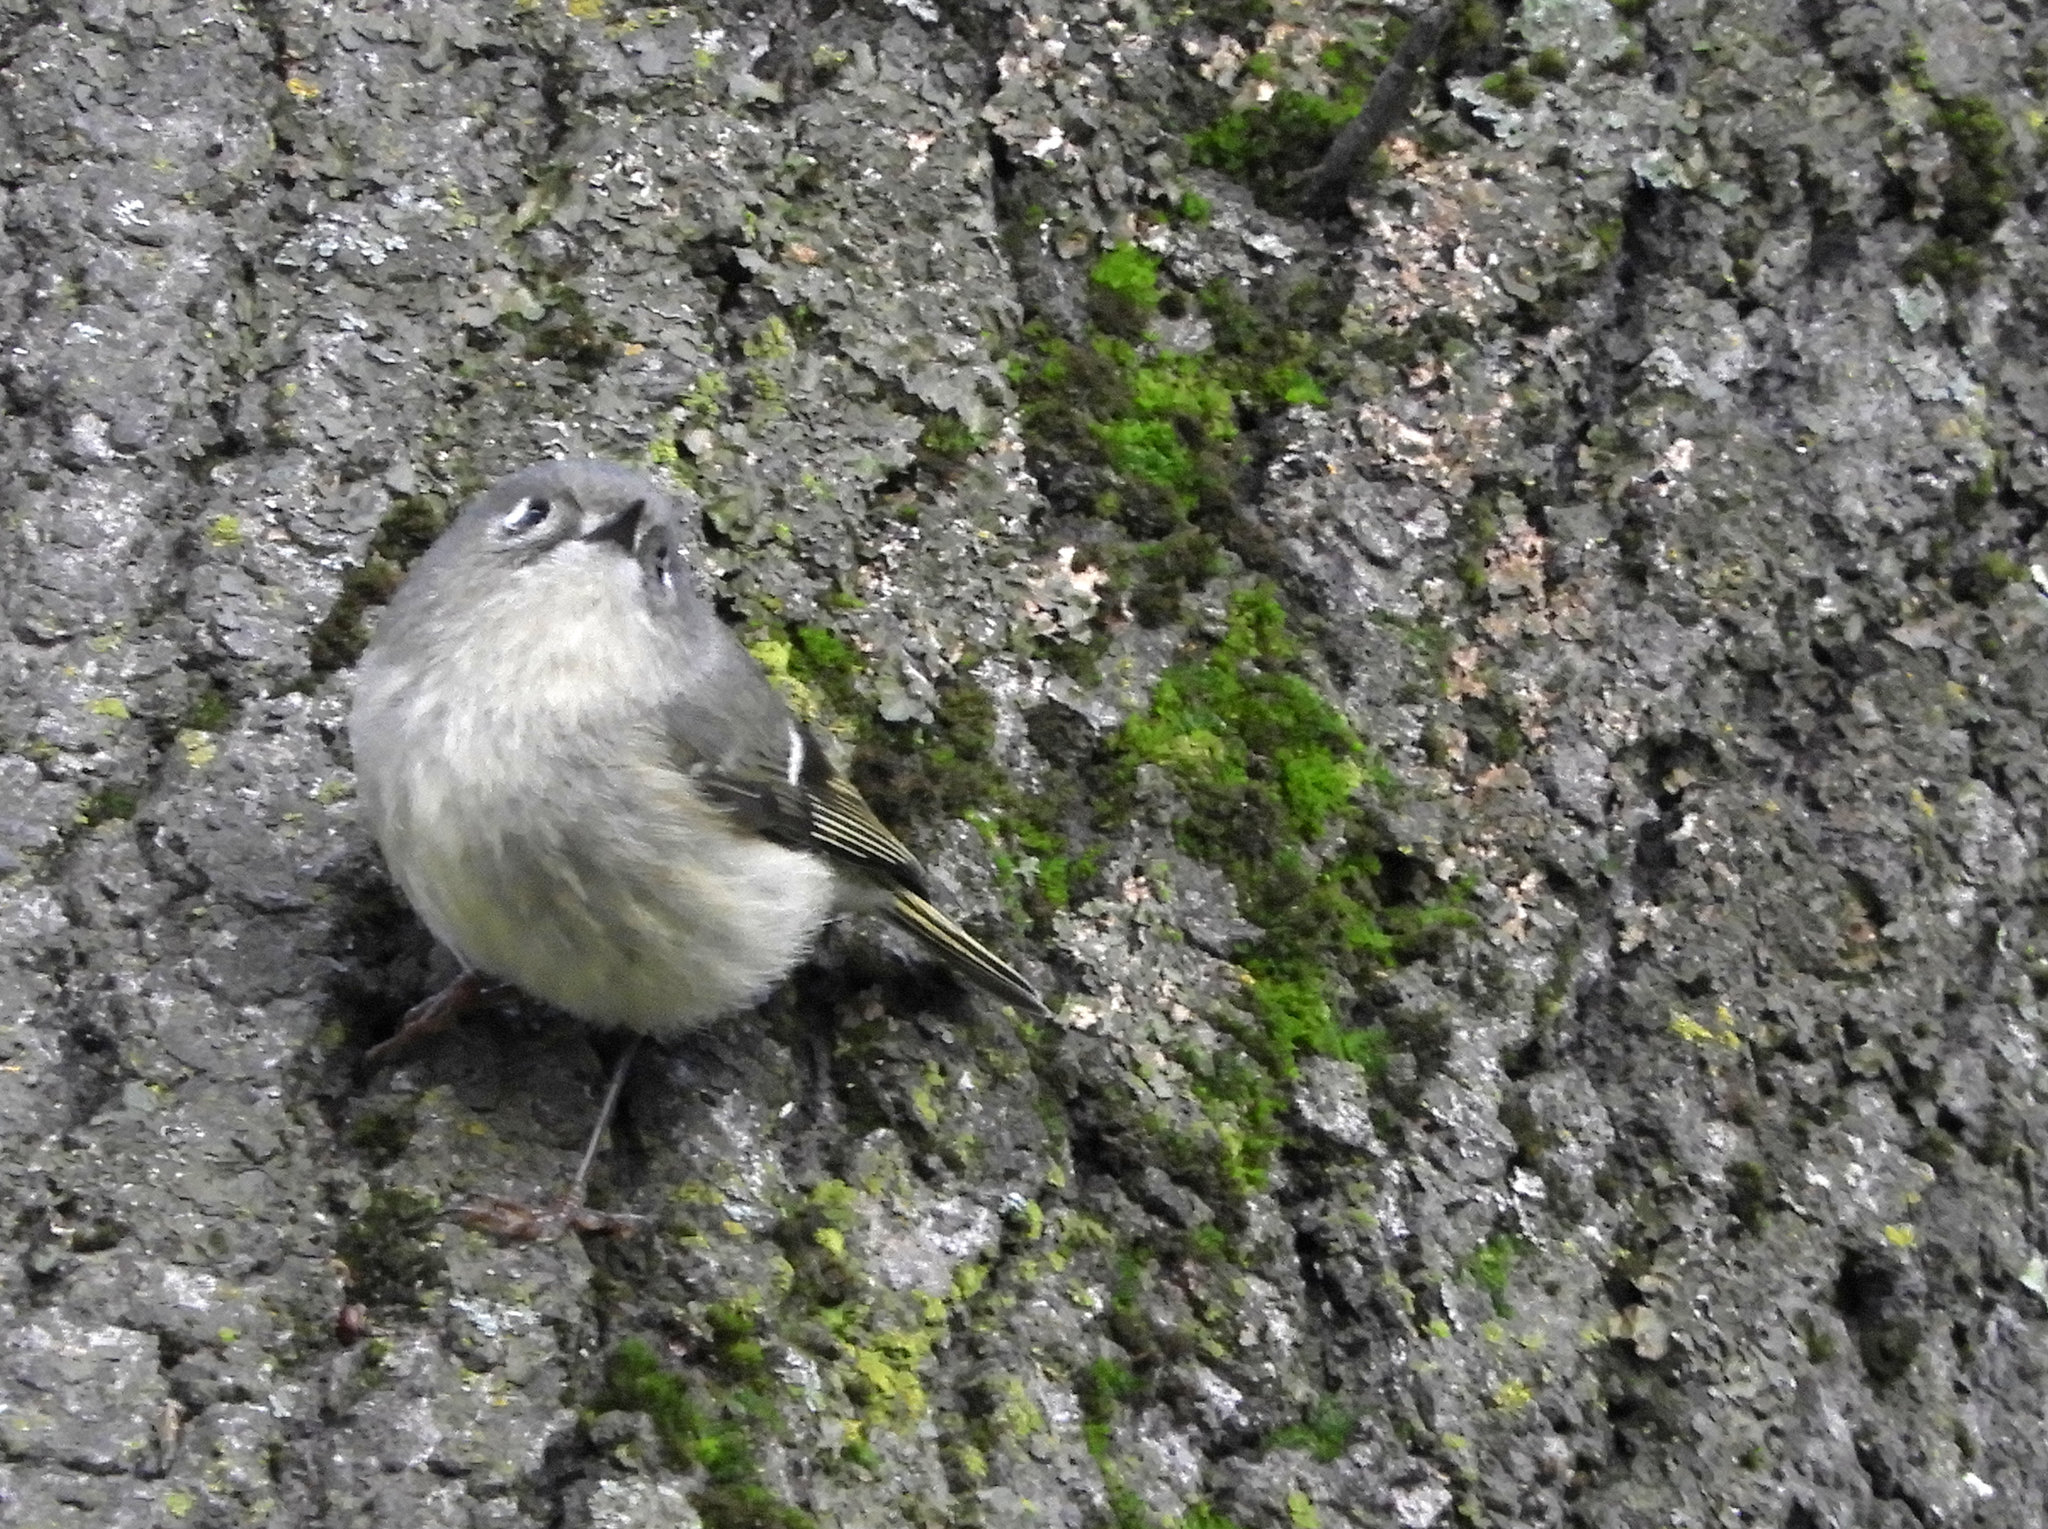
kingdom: Animalia
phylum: Chordata
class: Aves
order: Passeriformes
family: Regulidae
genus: Regulus
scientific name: Regulus calendula
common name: Ruby-crowned kinglet
